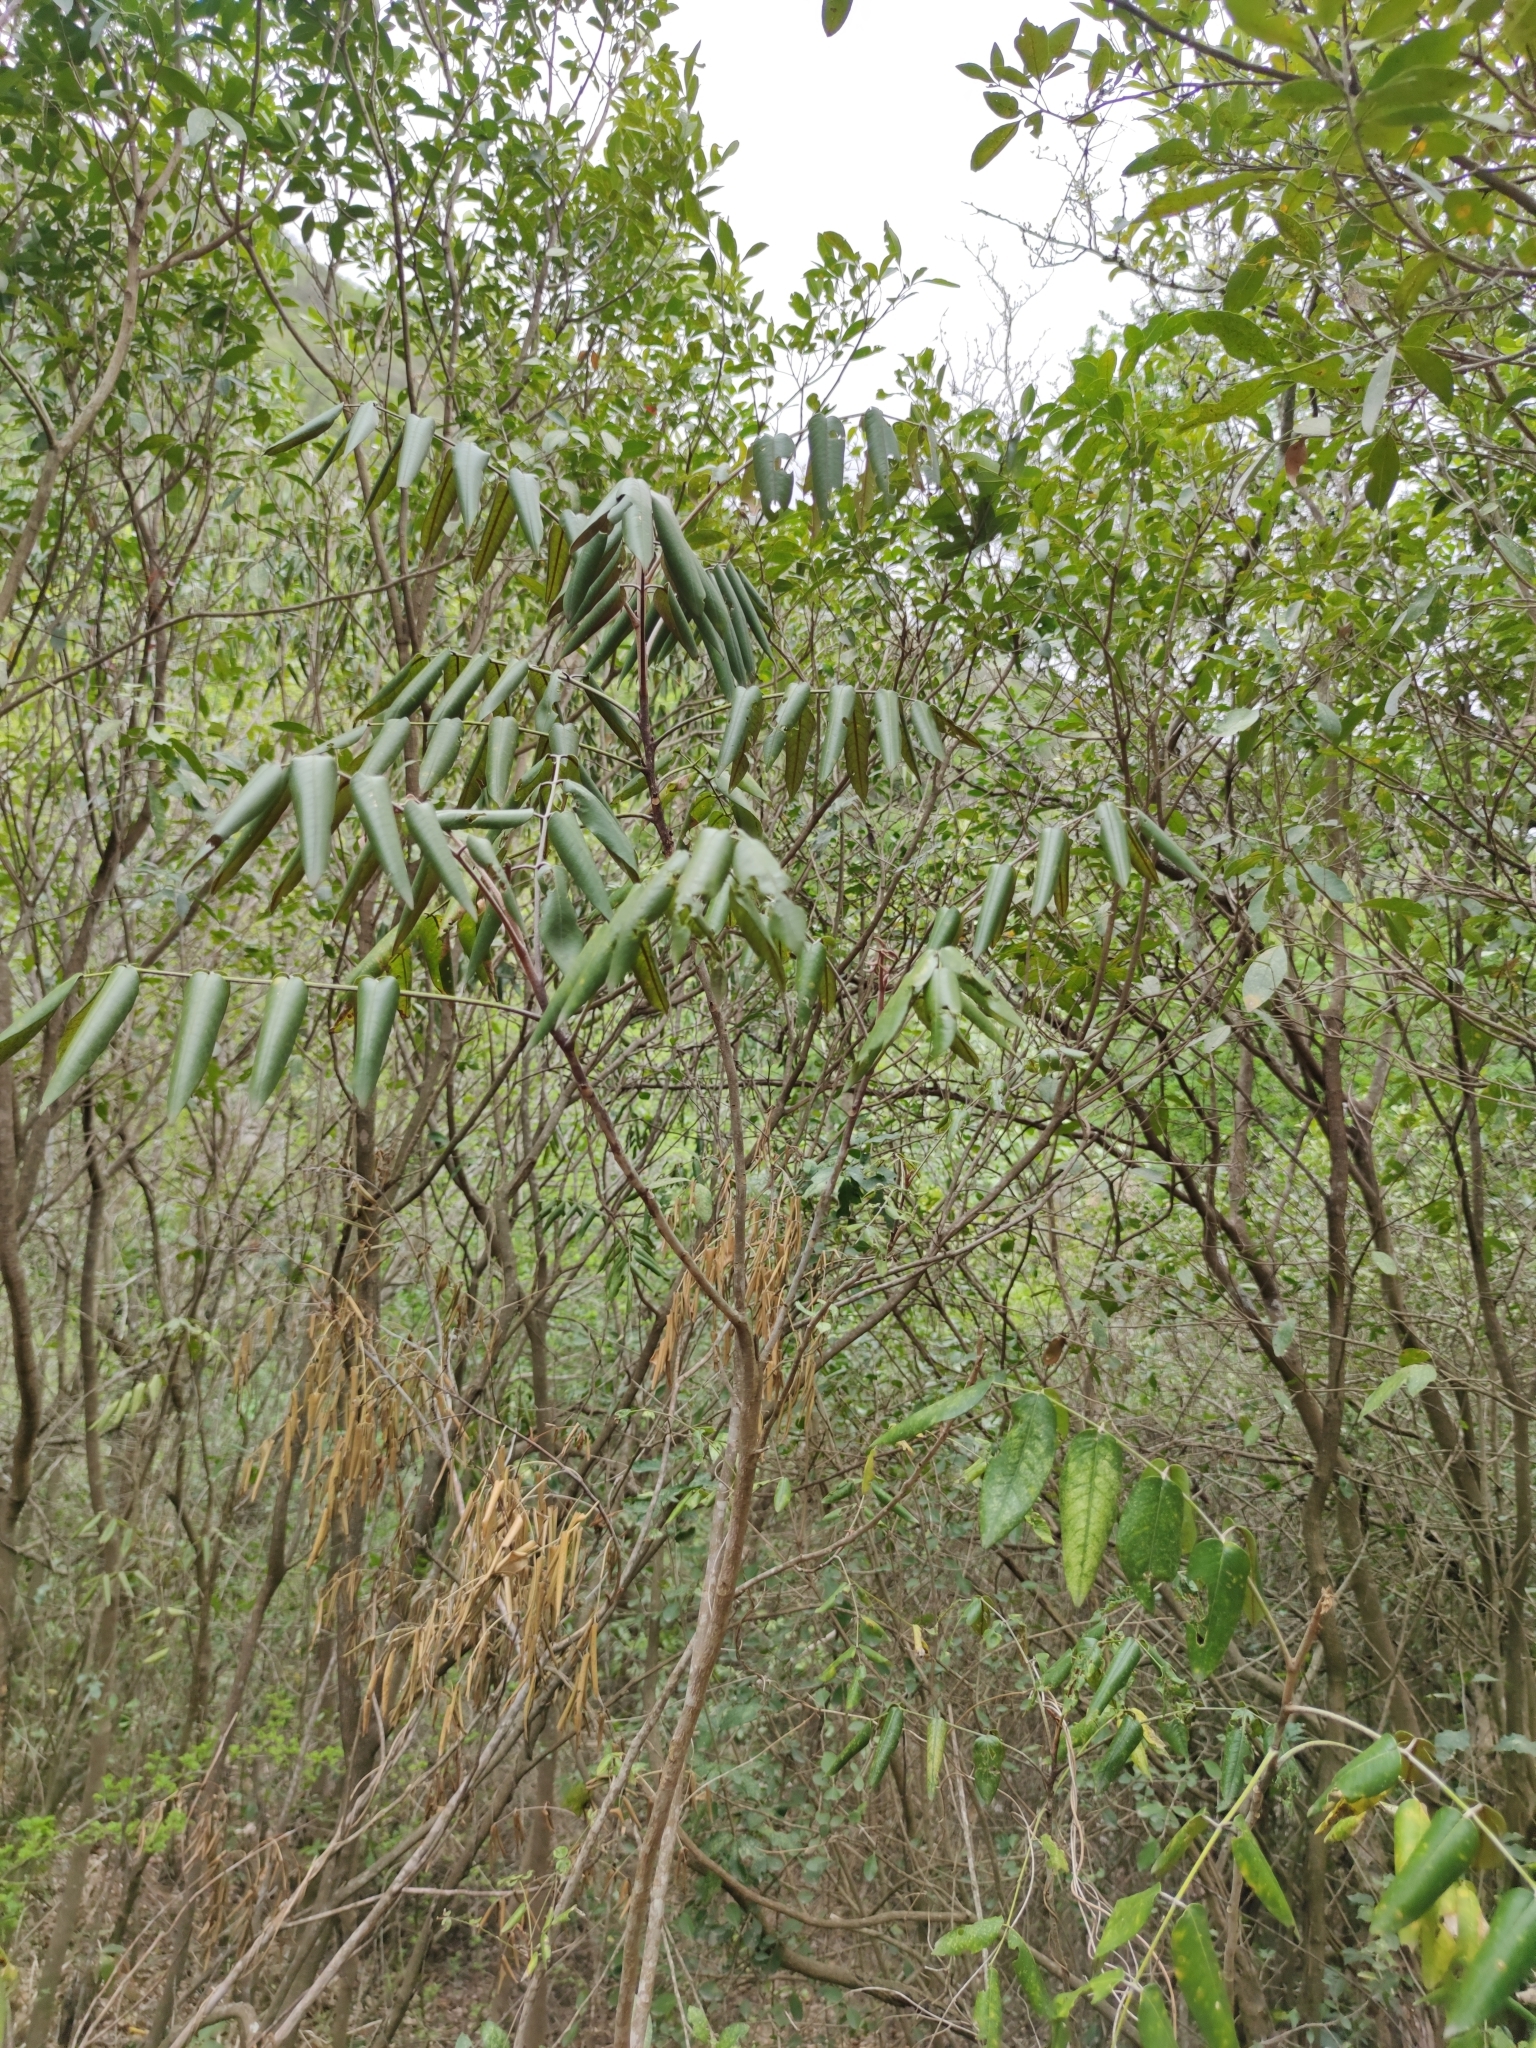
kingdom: Plantae
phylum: Tracheophyta
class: Magnoliopsida
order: Sapindales
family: Rutaceae
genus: Decatropis
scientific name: Decatropis bicolor
